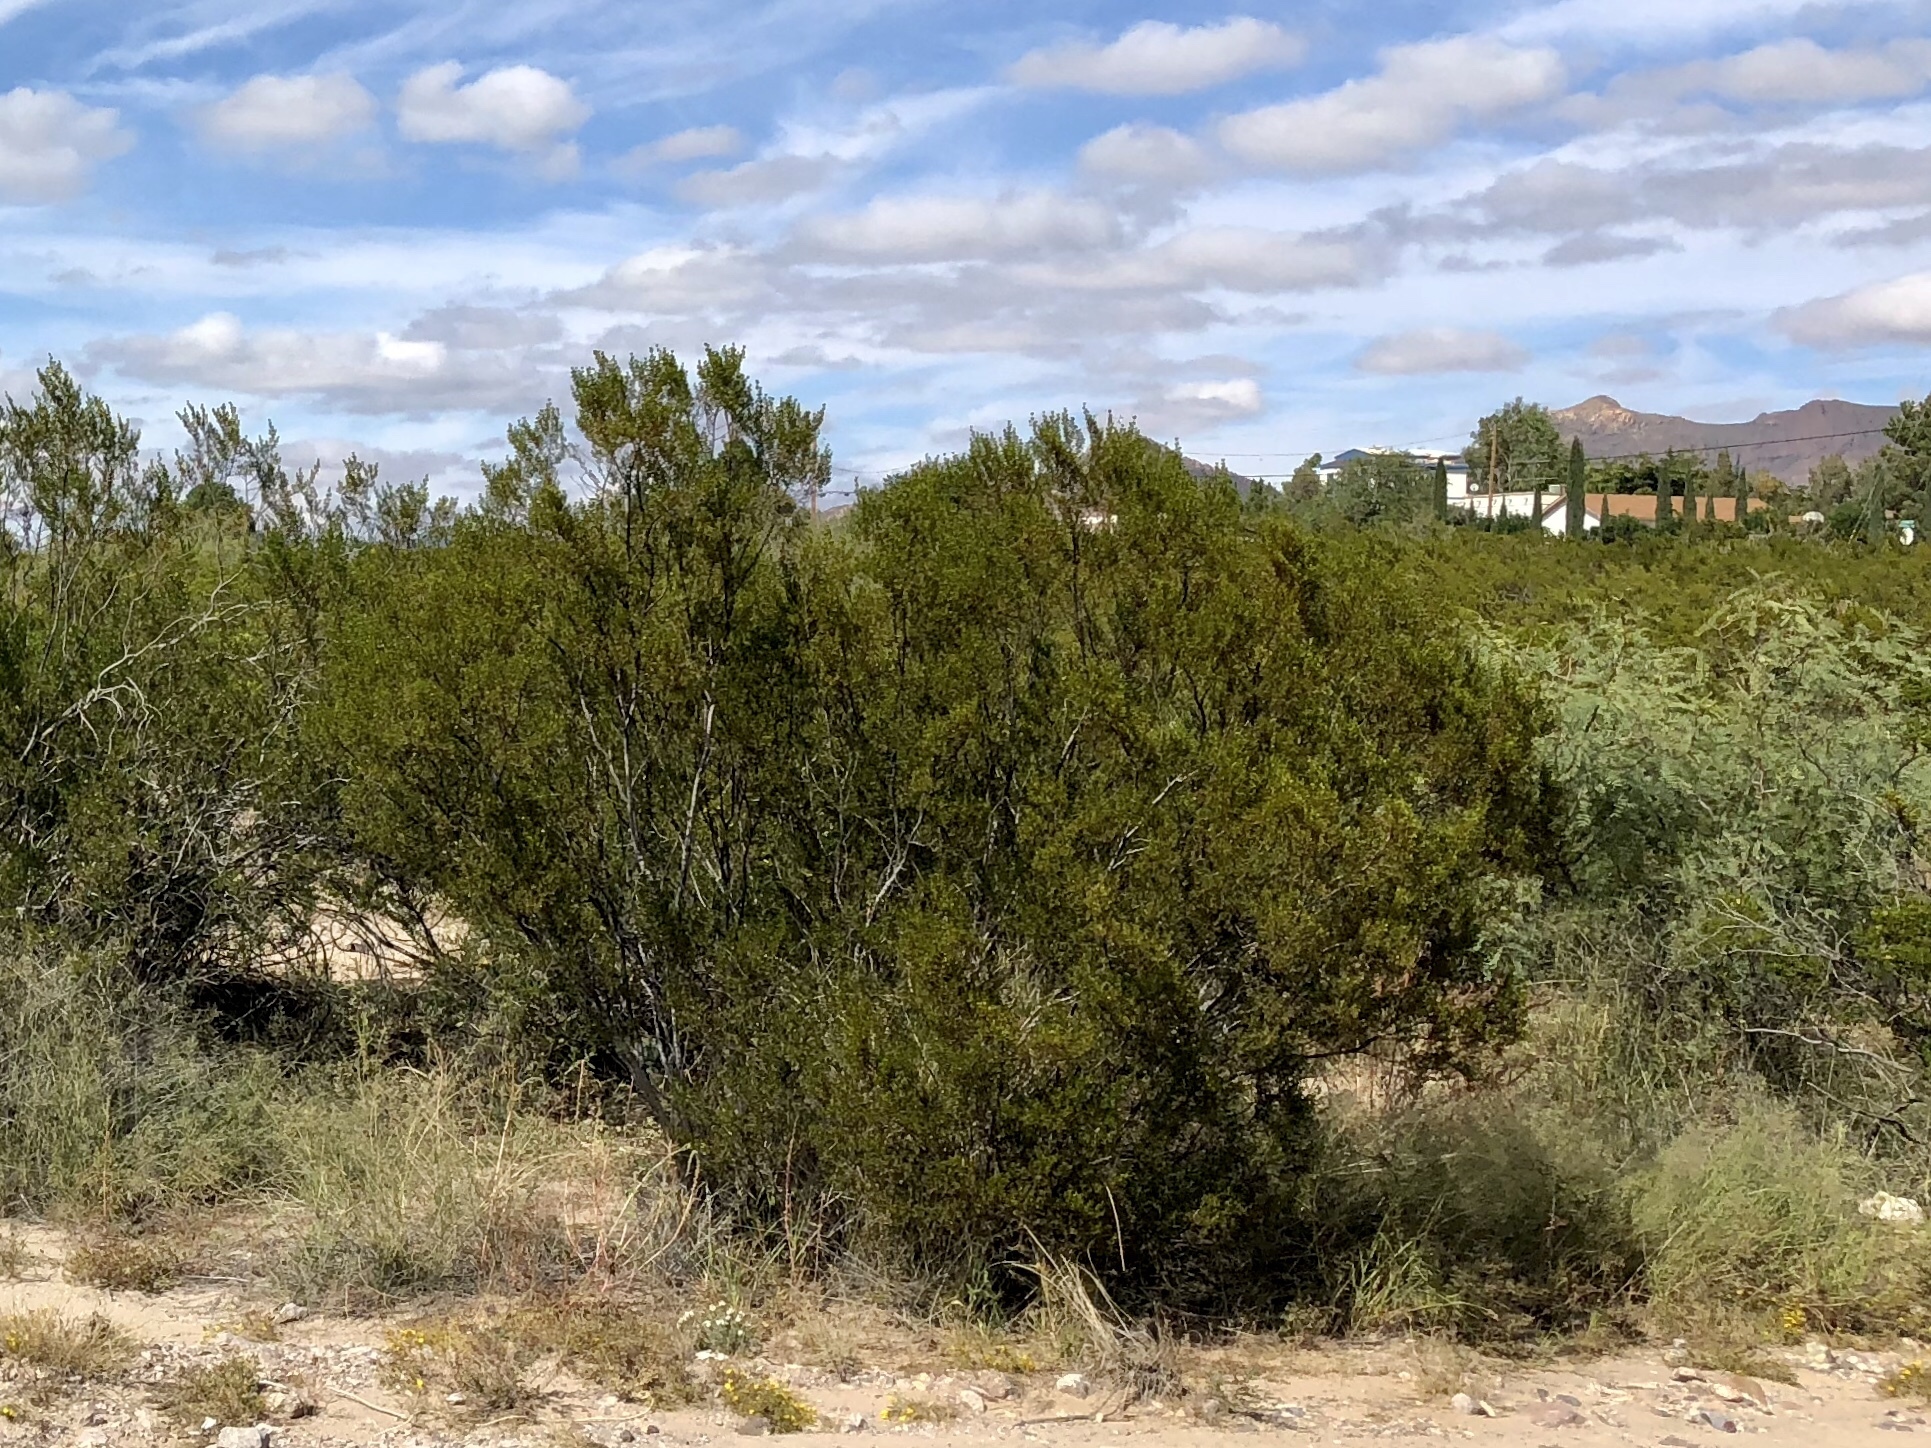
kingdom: Plantae
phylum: Tracheophyta
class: Magnoliopsida
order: Zygophyllales
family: Zygophyllaceae
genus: Larrea
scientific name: Larrea tridentata
